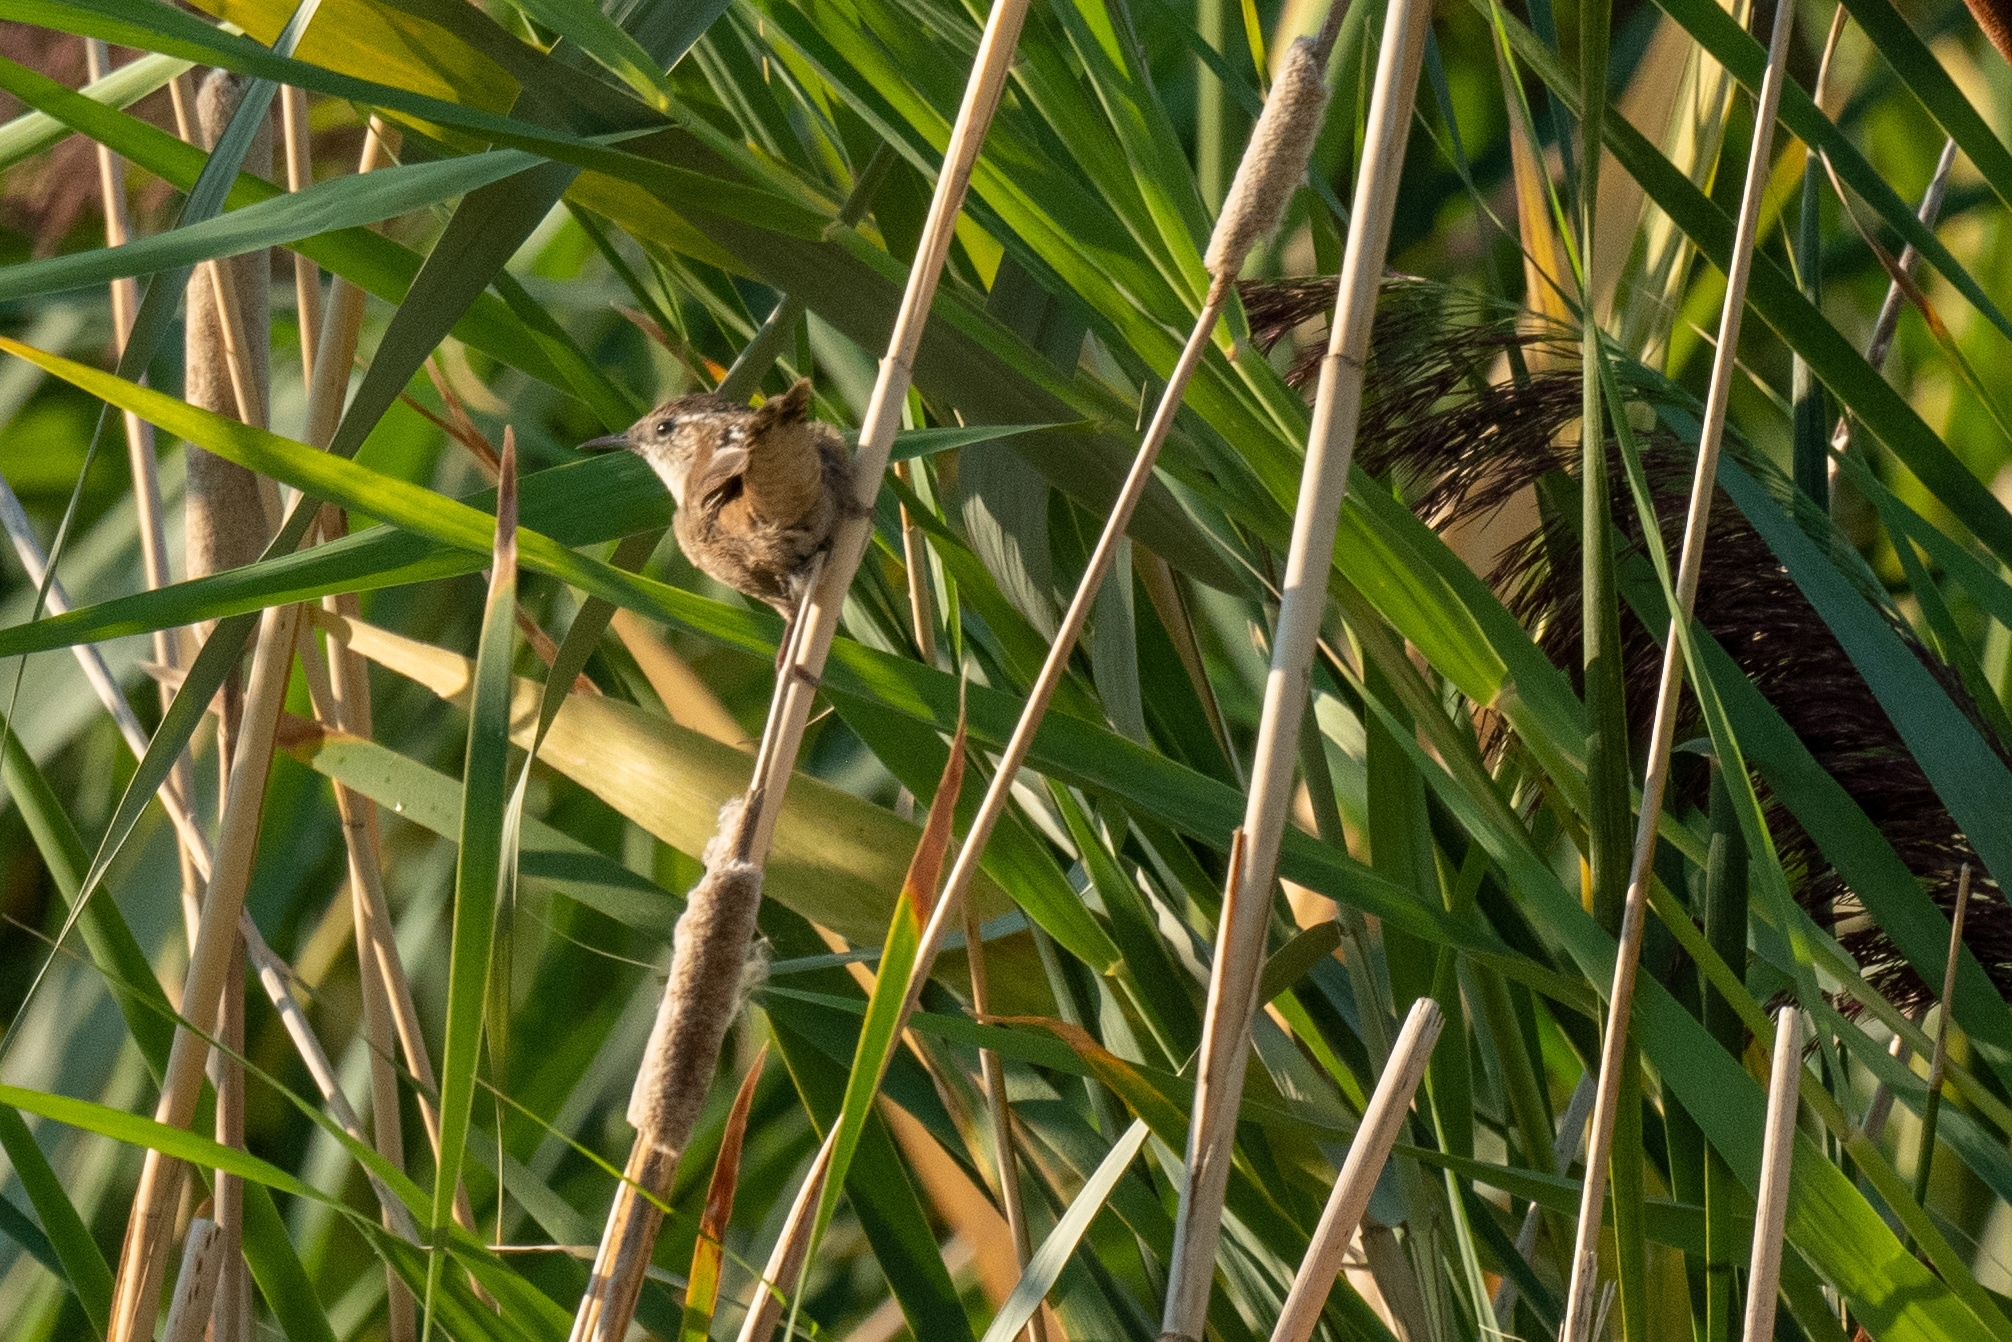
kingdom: Animalia
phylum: Chordata
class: Aves
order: Passeriformes
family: Troglodytidae
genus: Cistothorus
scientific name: Cistothorus palustris
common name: Marsh wren
